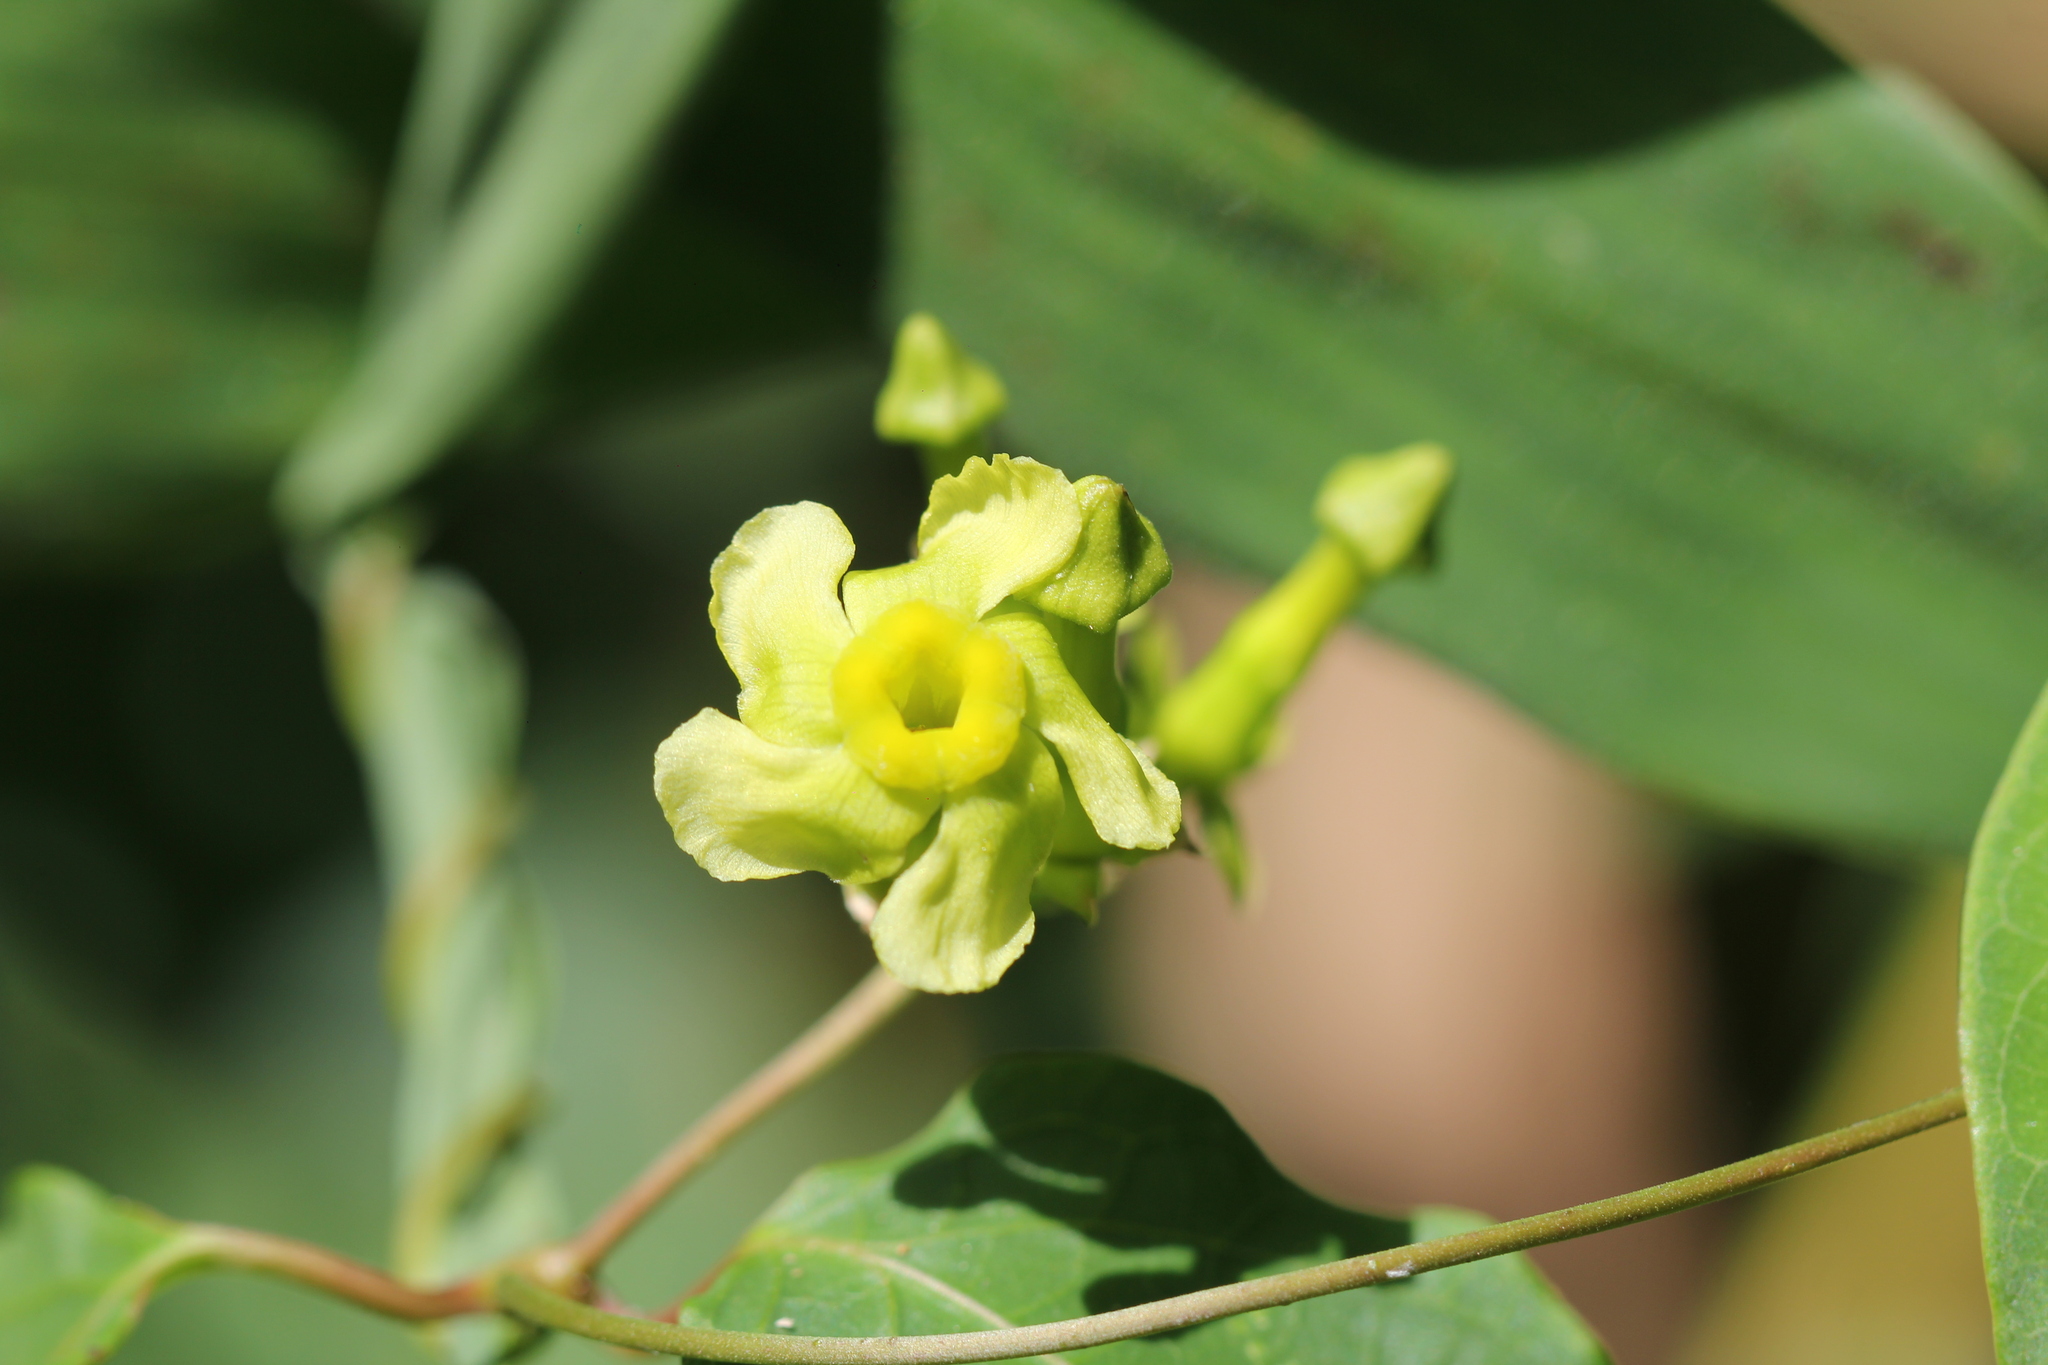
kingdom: Plantae
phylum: Tracheophyta
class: Magnoliopsida
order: Gentianales
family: Apocynaceae
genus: Prestonia
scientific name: Prestonia cyaniphylla
